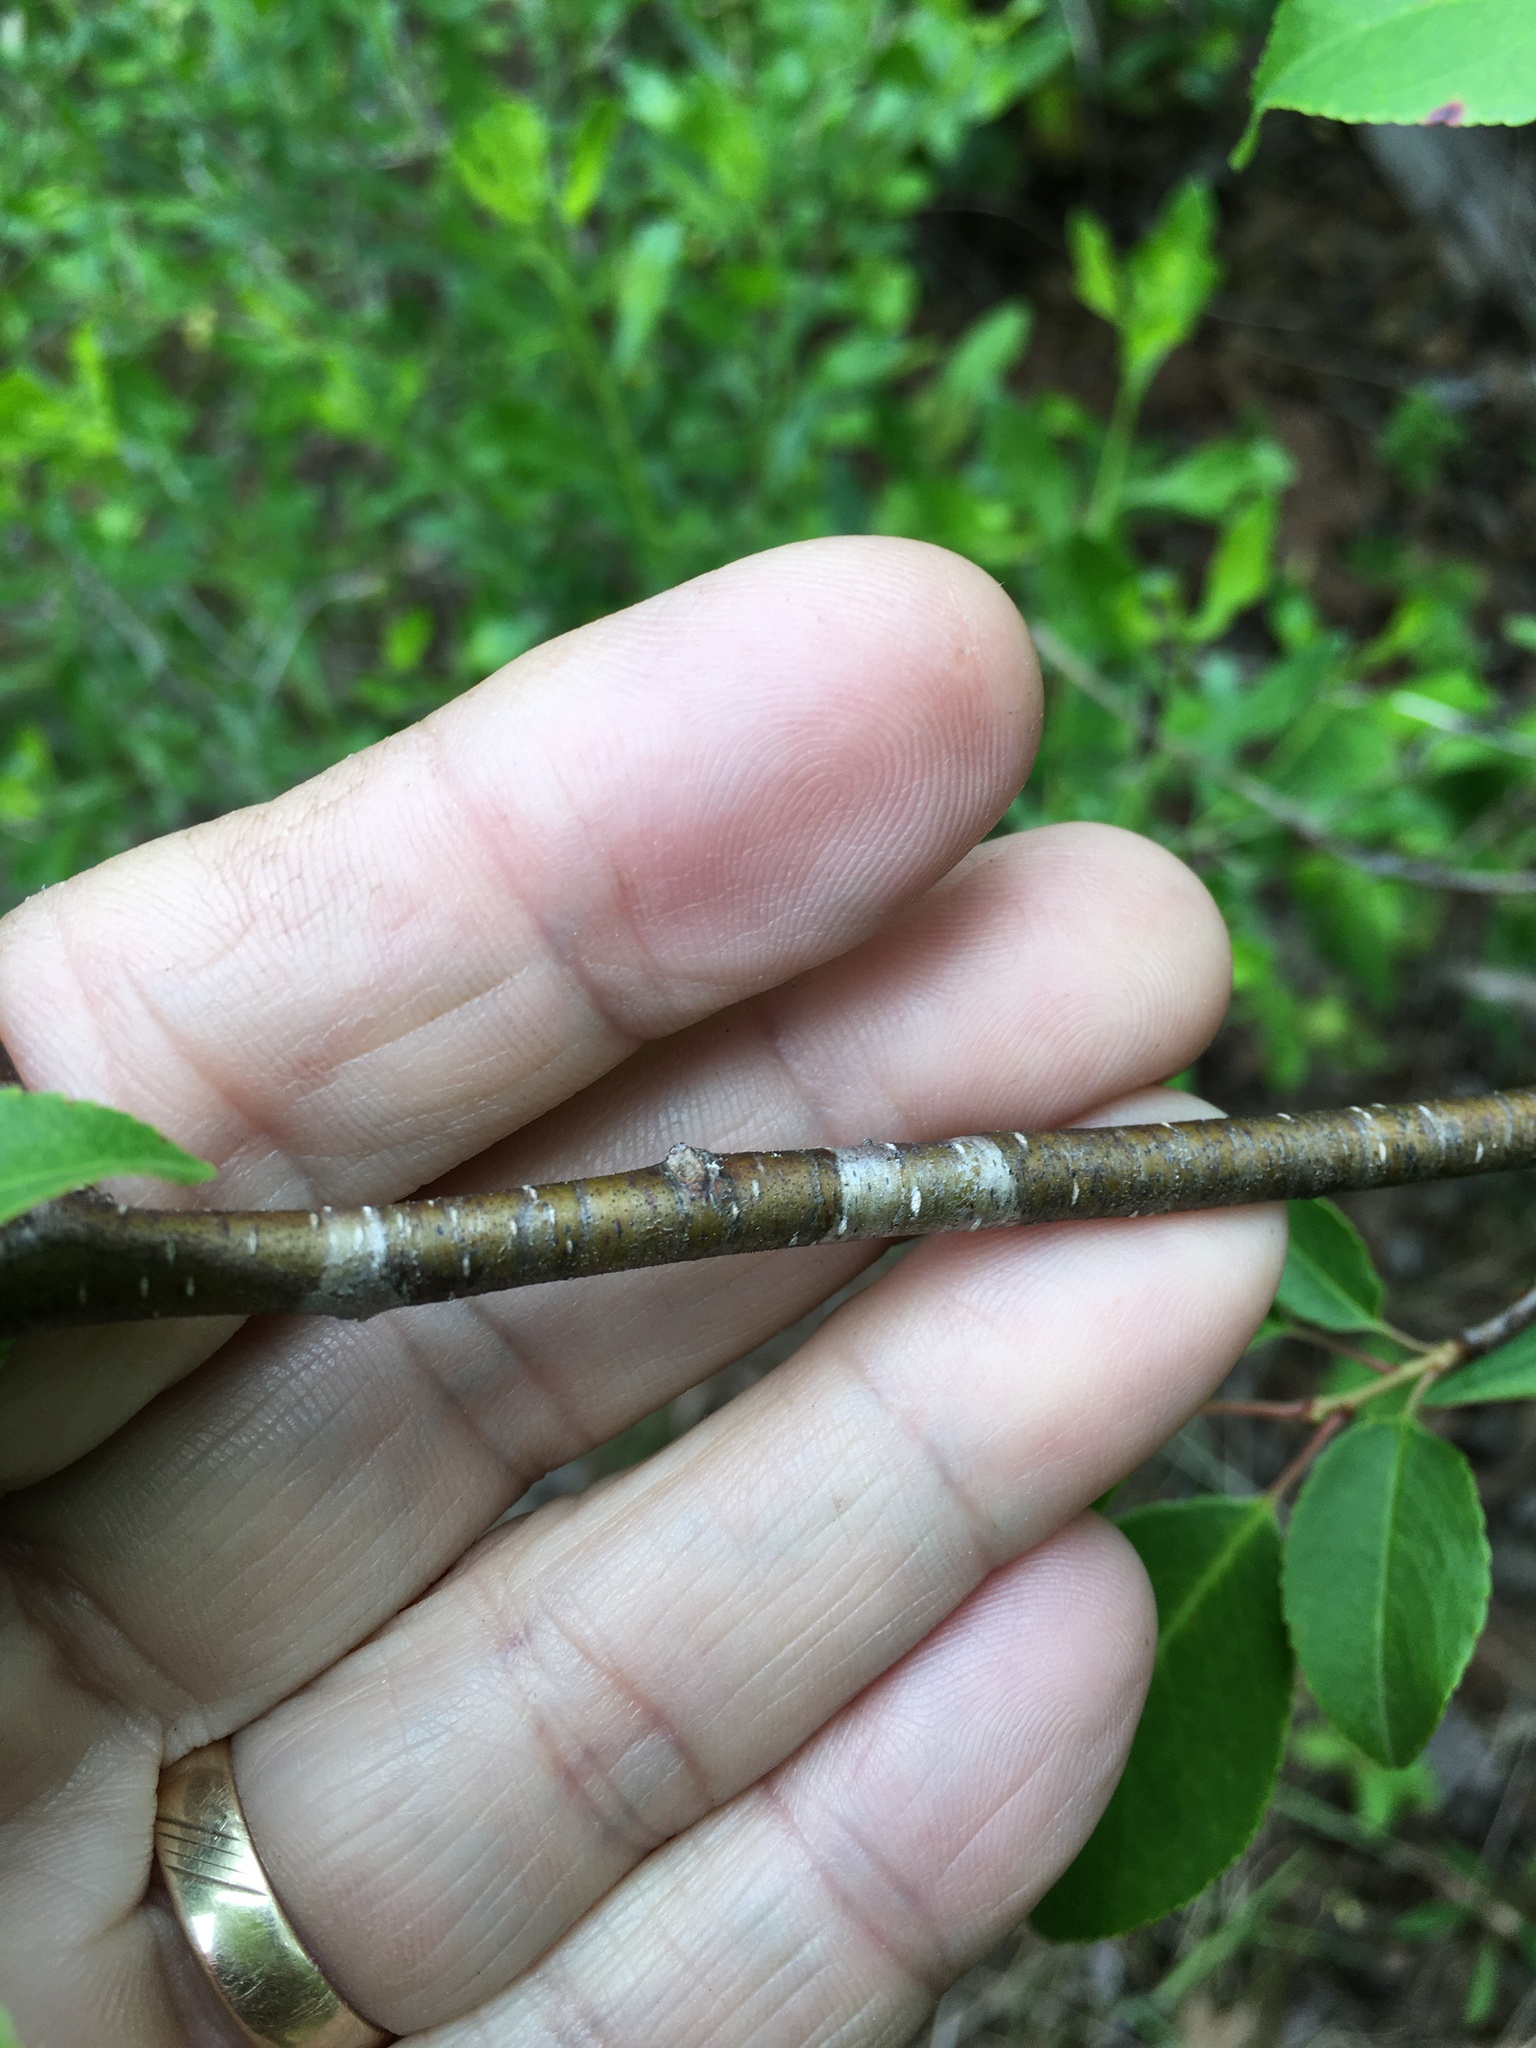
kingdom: Plantae
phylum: Tracheophyta
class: Magnoliopsida
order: Rosales
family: Rosaceae
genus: Prunus
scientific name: Prunus serotina
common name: Black cherry
